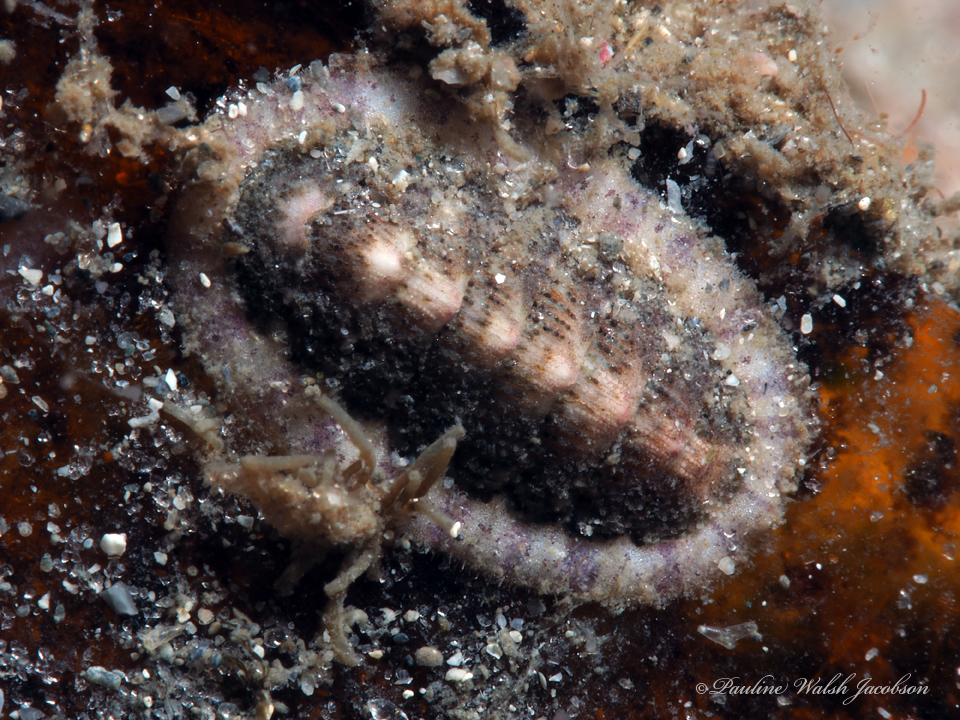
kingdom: Animalia
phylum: Mollusca
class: Polyplacophora
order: Chitonida
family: Chaetopleuridae
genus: Chaetopleura
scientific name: Chaetopleura apiculata
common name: Bee chiton
